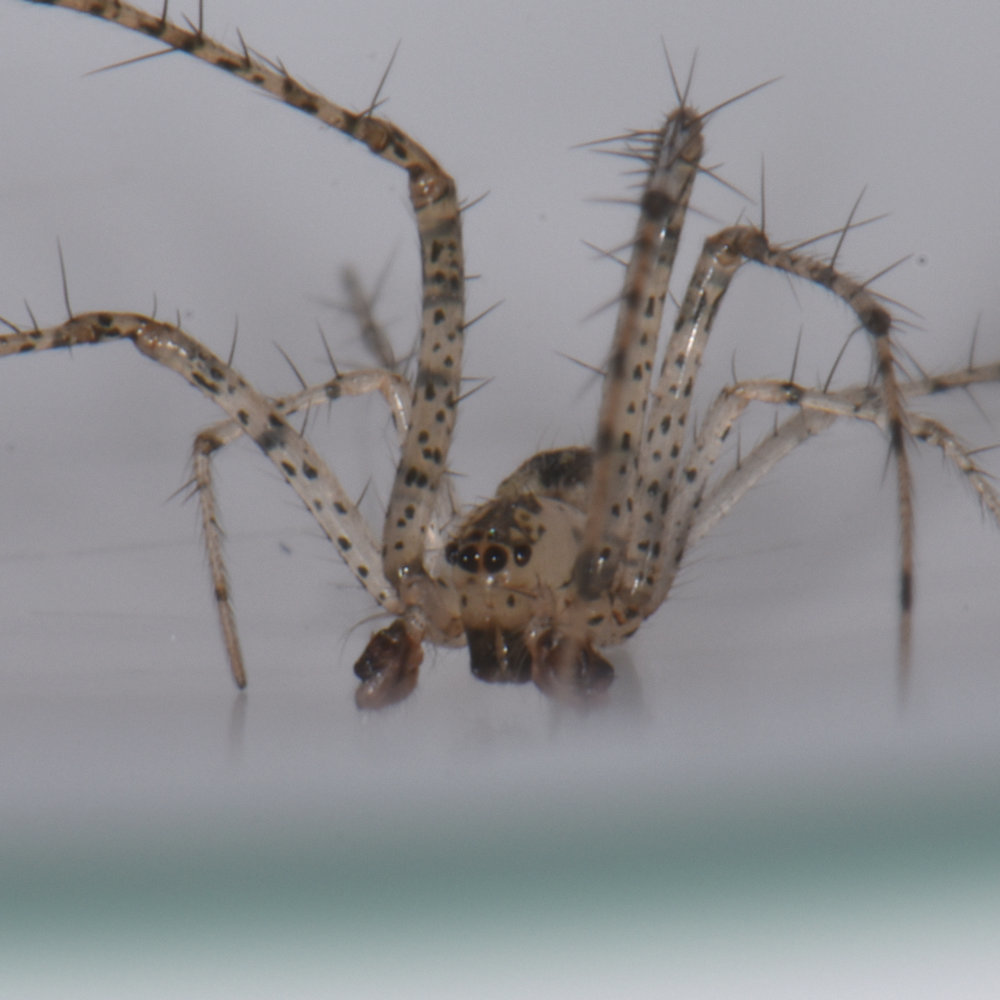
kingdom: Animalia
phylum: Arthropoda
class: Arachnida
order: Araneae
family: Mimetidae
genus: Mimetus
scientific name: Mimetus notius
